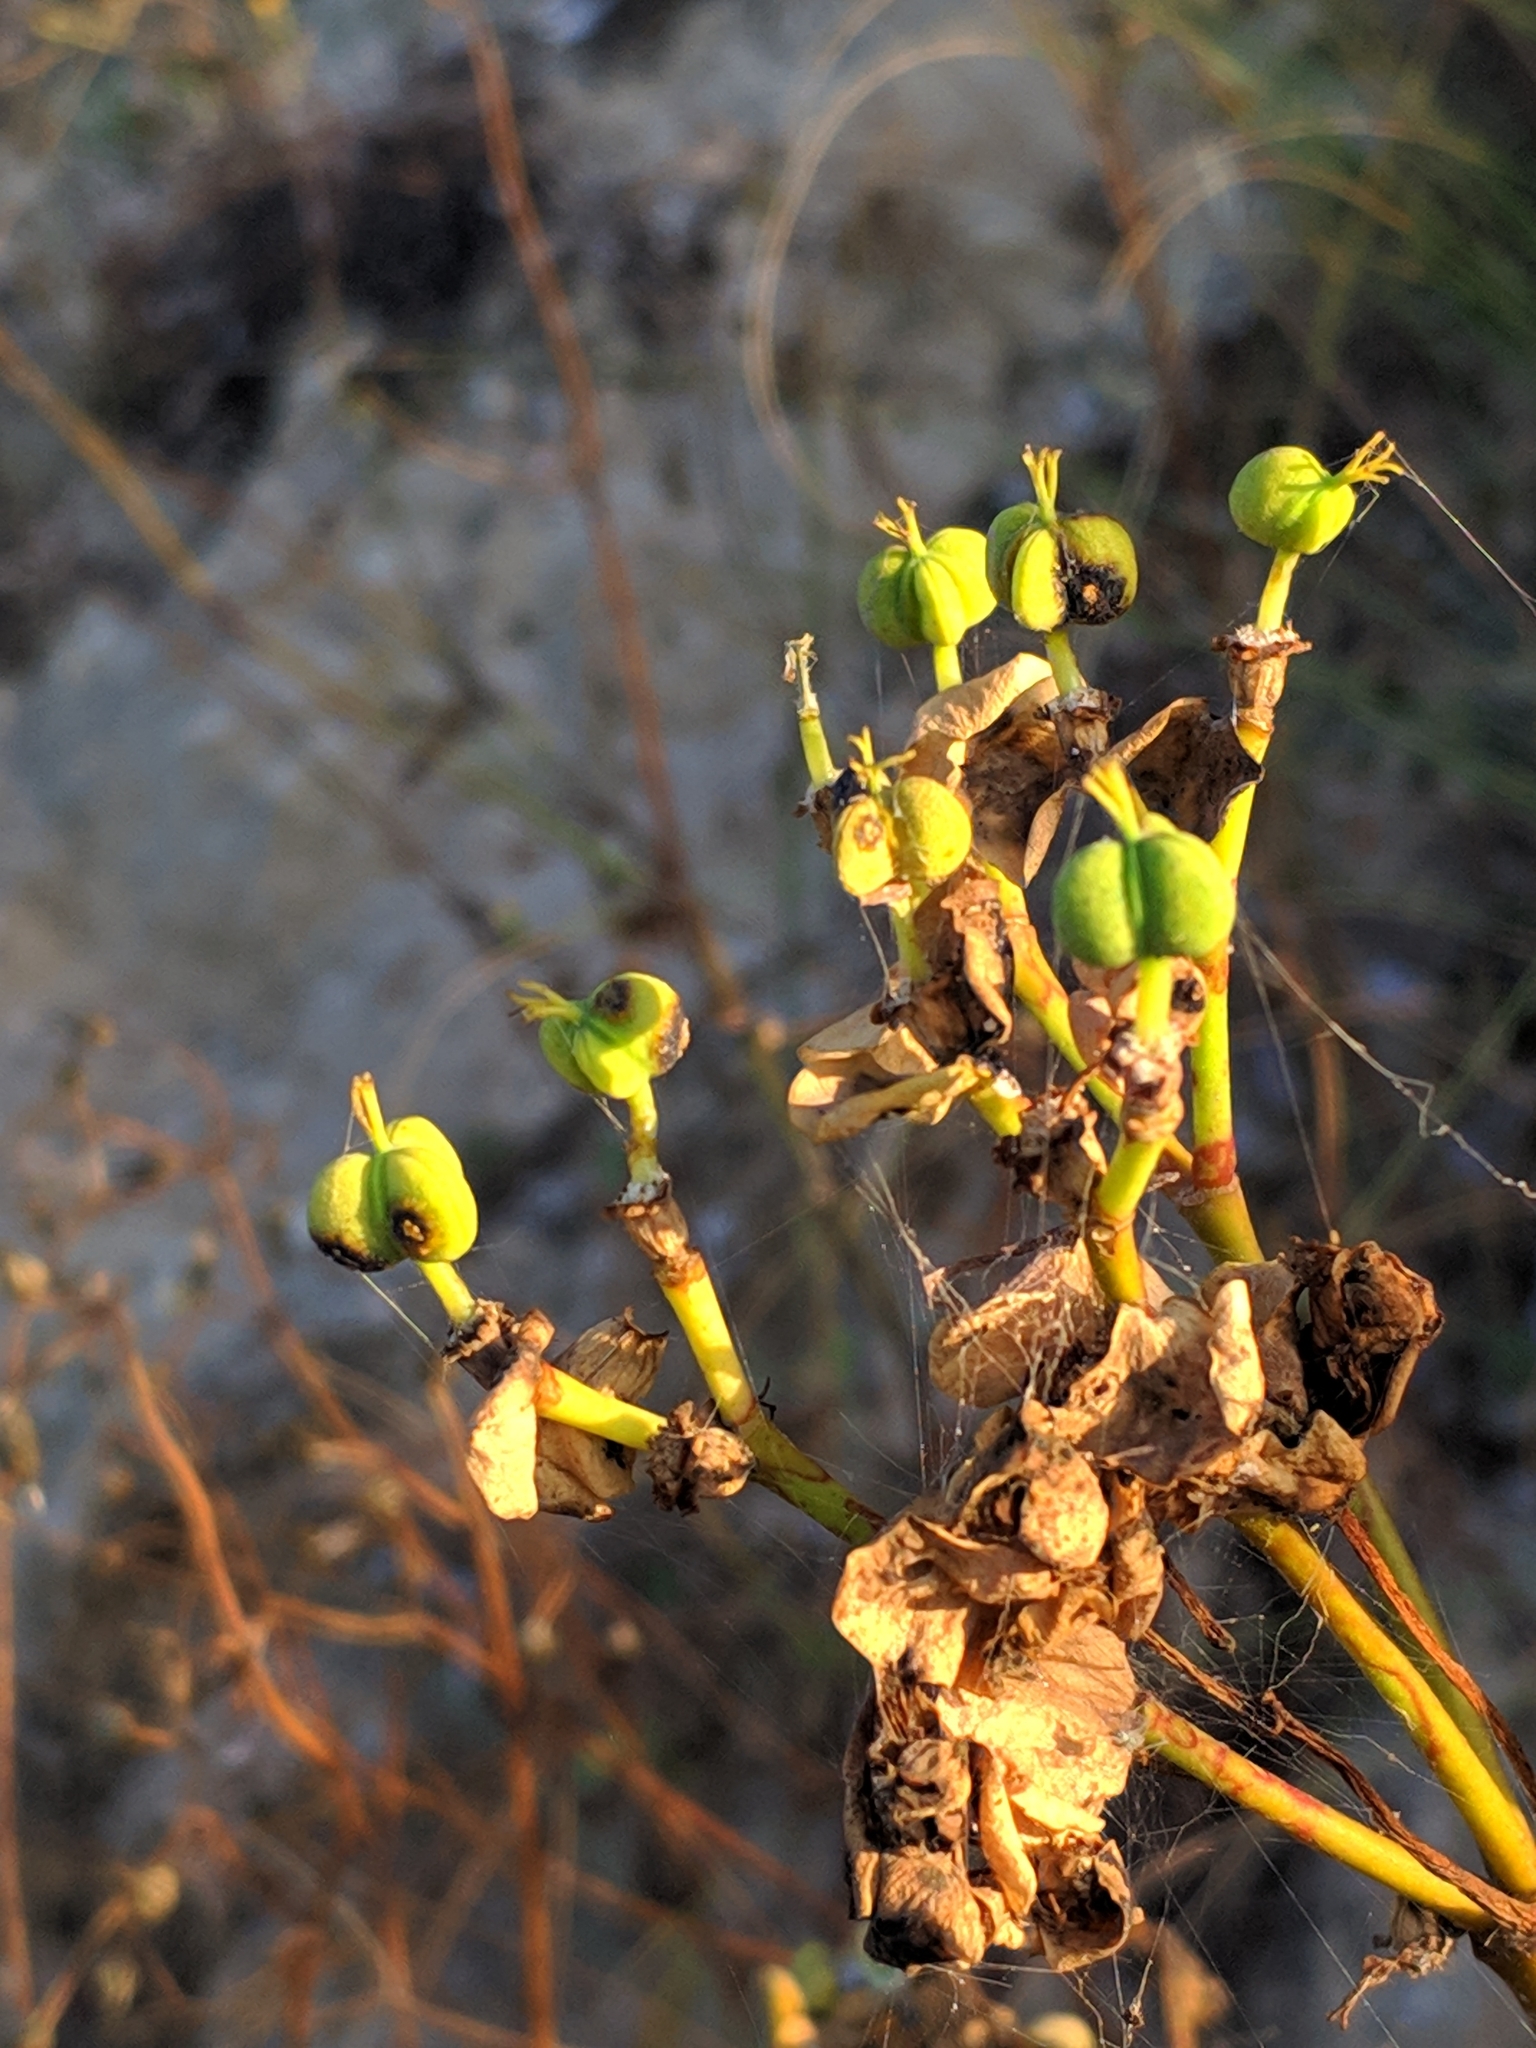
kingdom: Plantae
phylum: Tracheophyta
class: Magnoliopsida
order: Malpighiales
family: Euphorbiaceae
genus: Euphorbia
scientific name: Euphorbia dendroides
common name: Tree spurge
